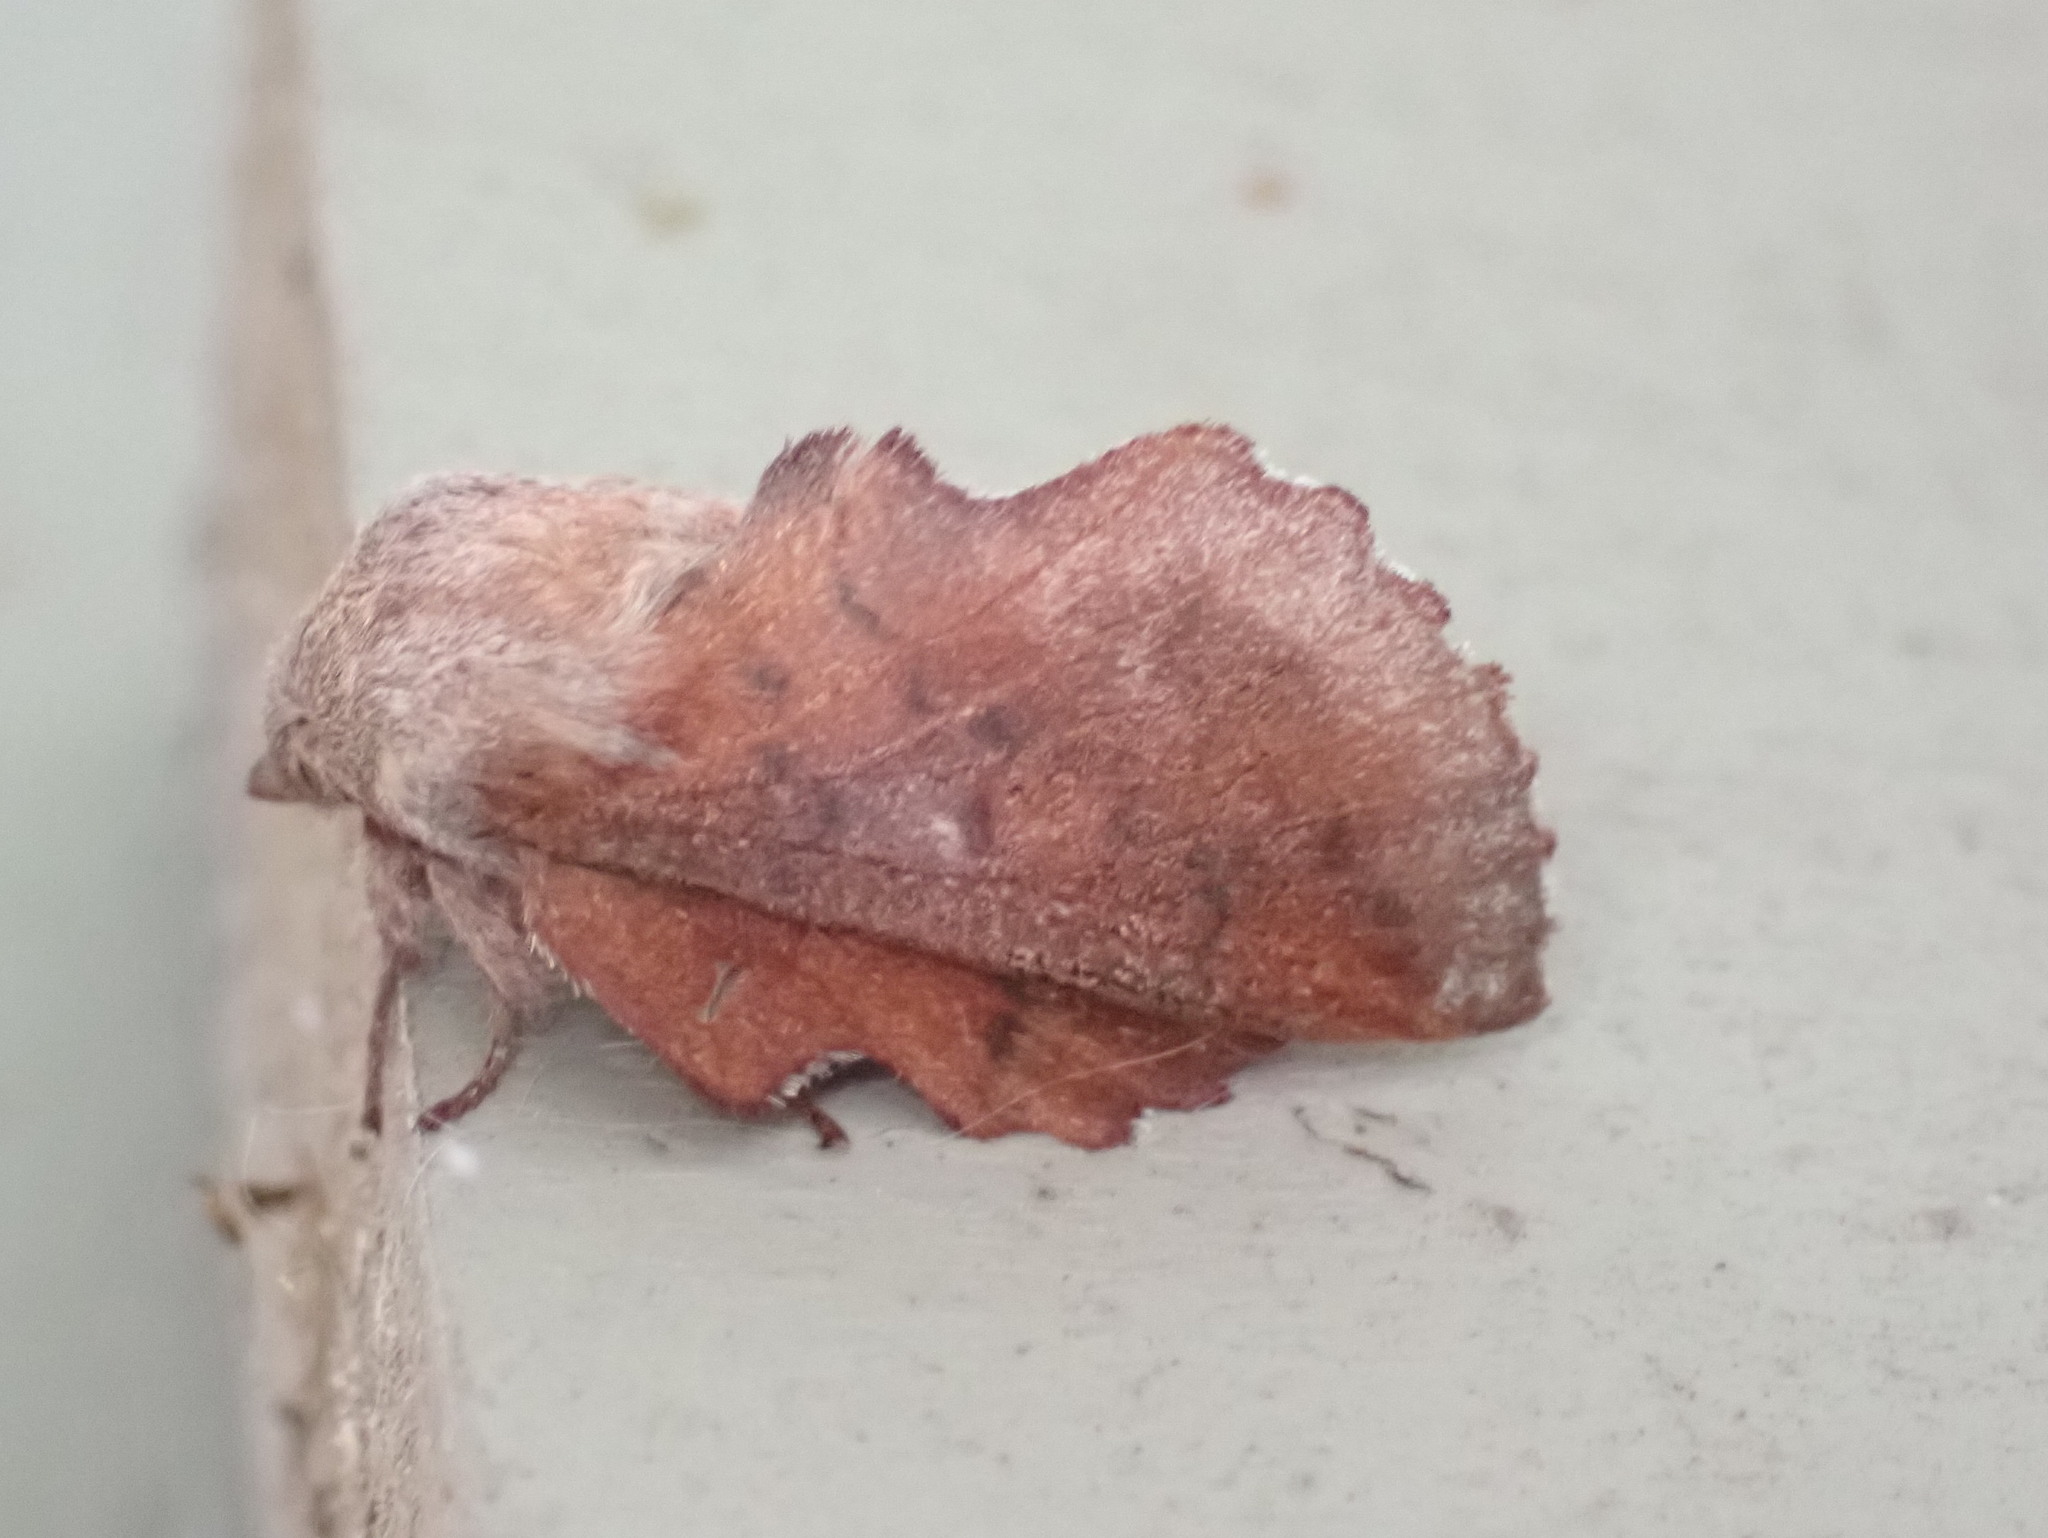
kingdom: Animalia
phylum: Arthropoda
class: Insecta
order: Lepidoptera
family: Lasiocampidae
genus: Phyllodesma
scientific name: Phyllodesma americana
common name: American lappet moth
